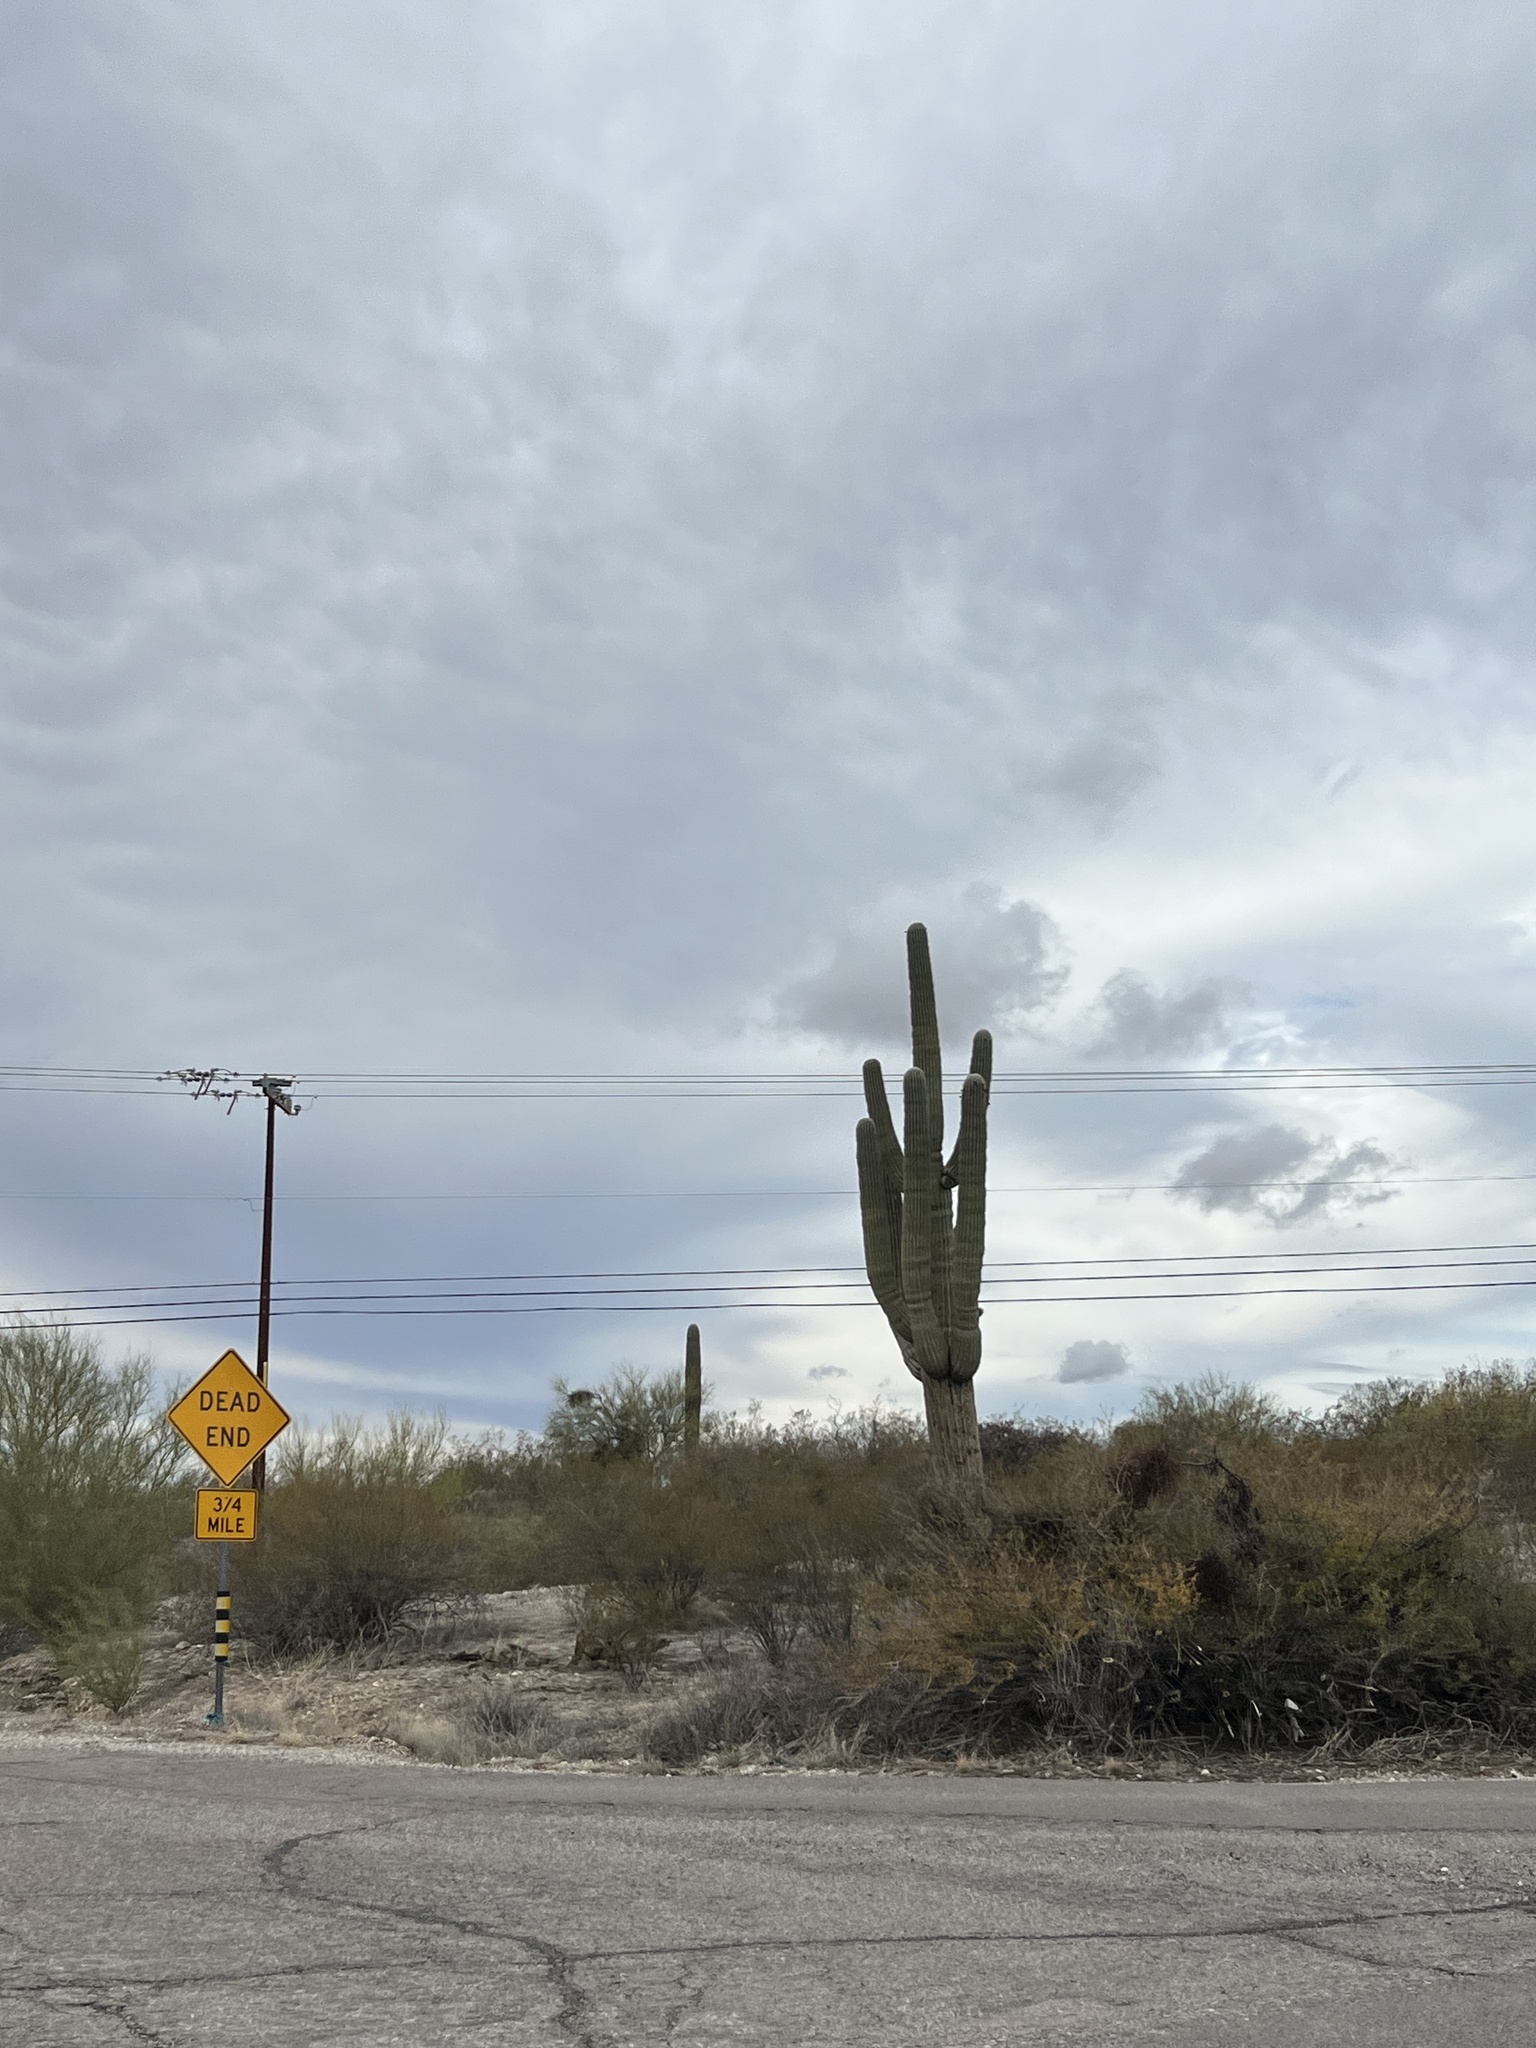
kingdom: Plantae
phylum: Tracheophyta
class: Magnoliopsida
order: Caryophyllales
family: Cactaceae
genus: Carnegiea
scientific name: Carnegiea gigantea
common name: Saguaro
